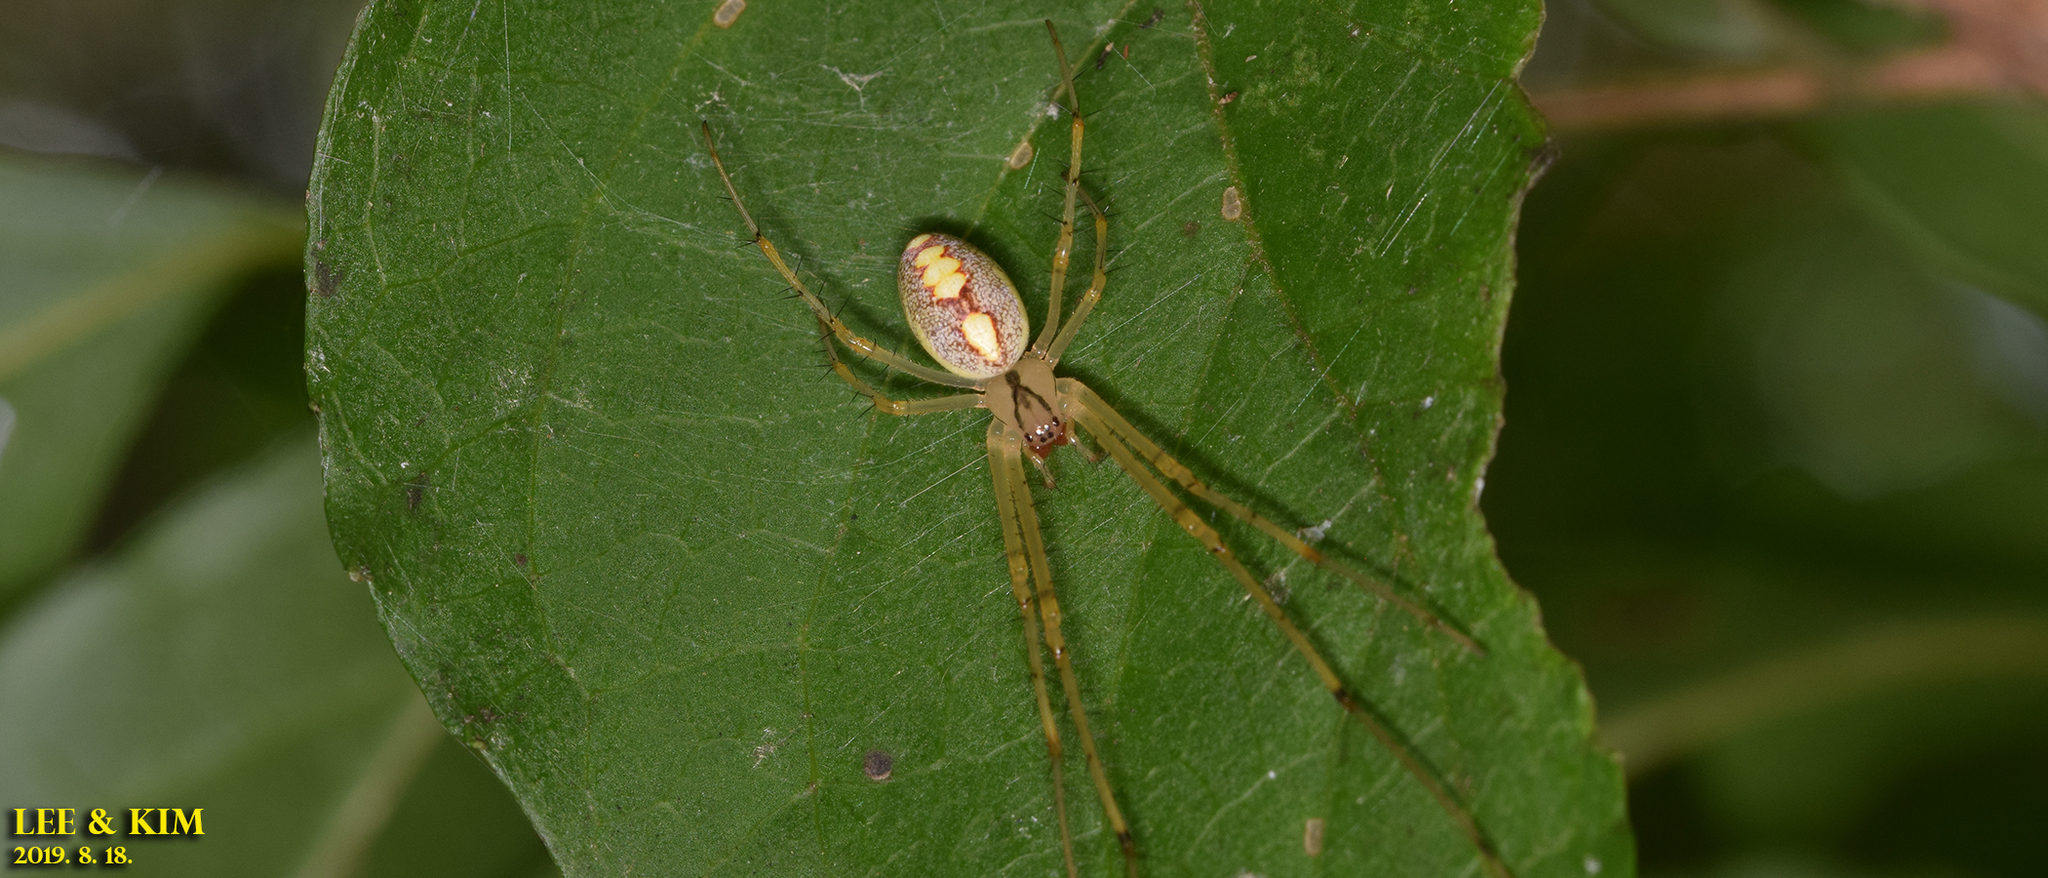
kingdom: Animalia
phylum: Arthropoda
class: Arachnida
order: Araneae
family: Tetragnathidae
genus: Metellina
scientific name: Metellina ornata
